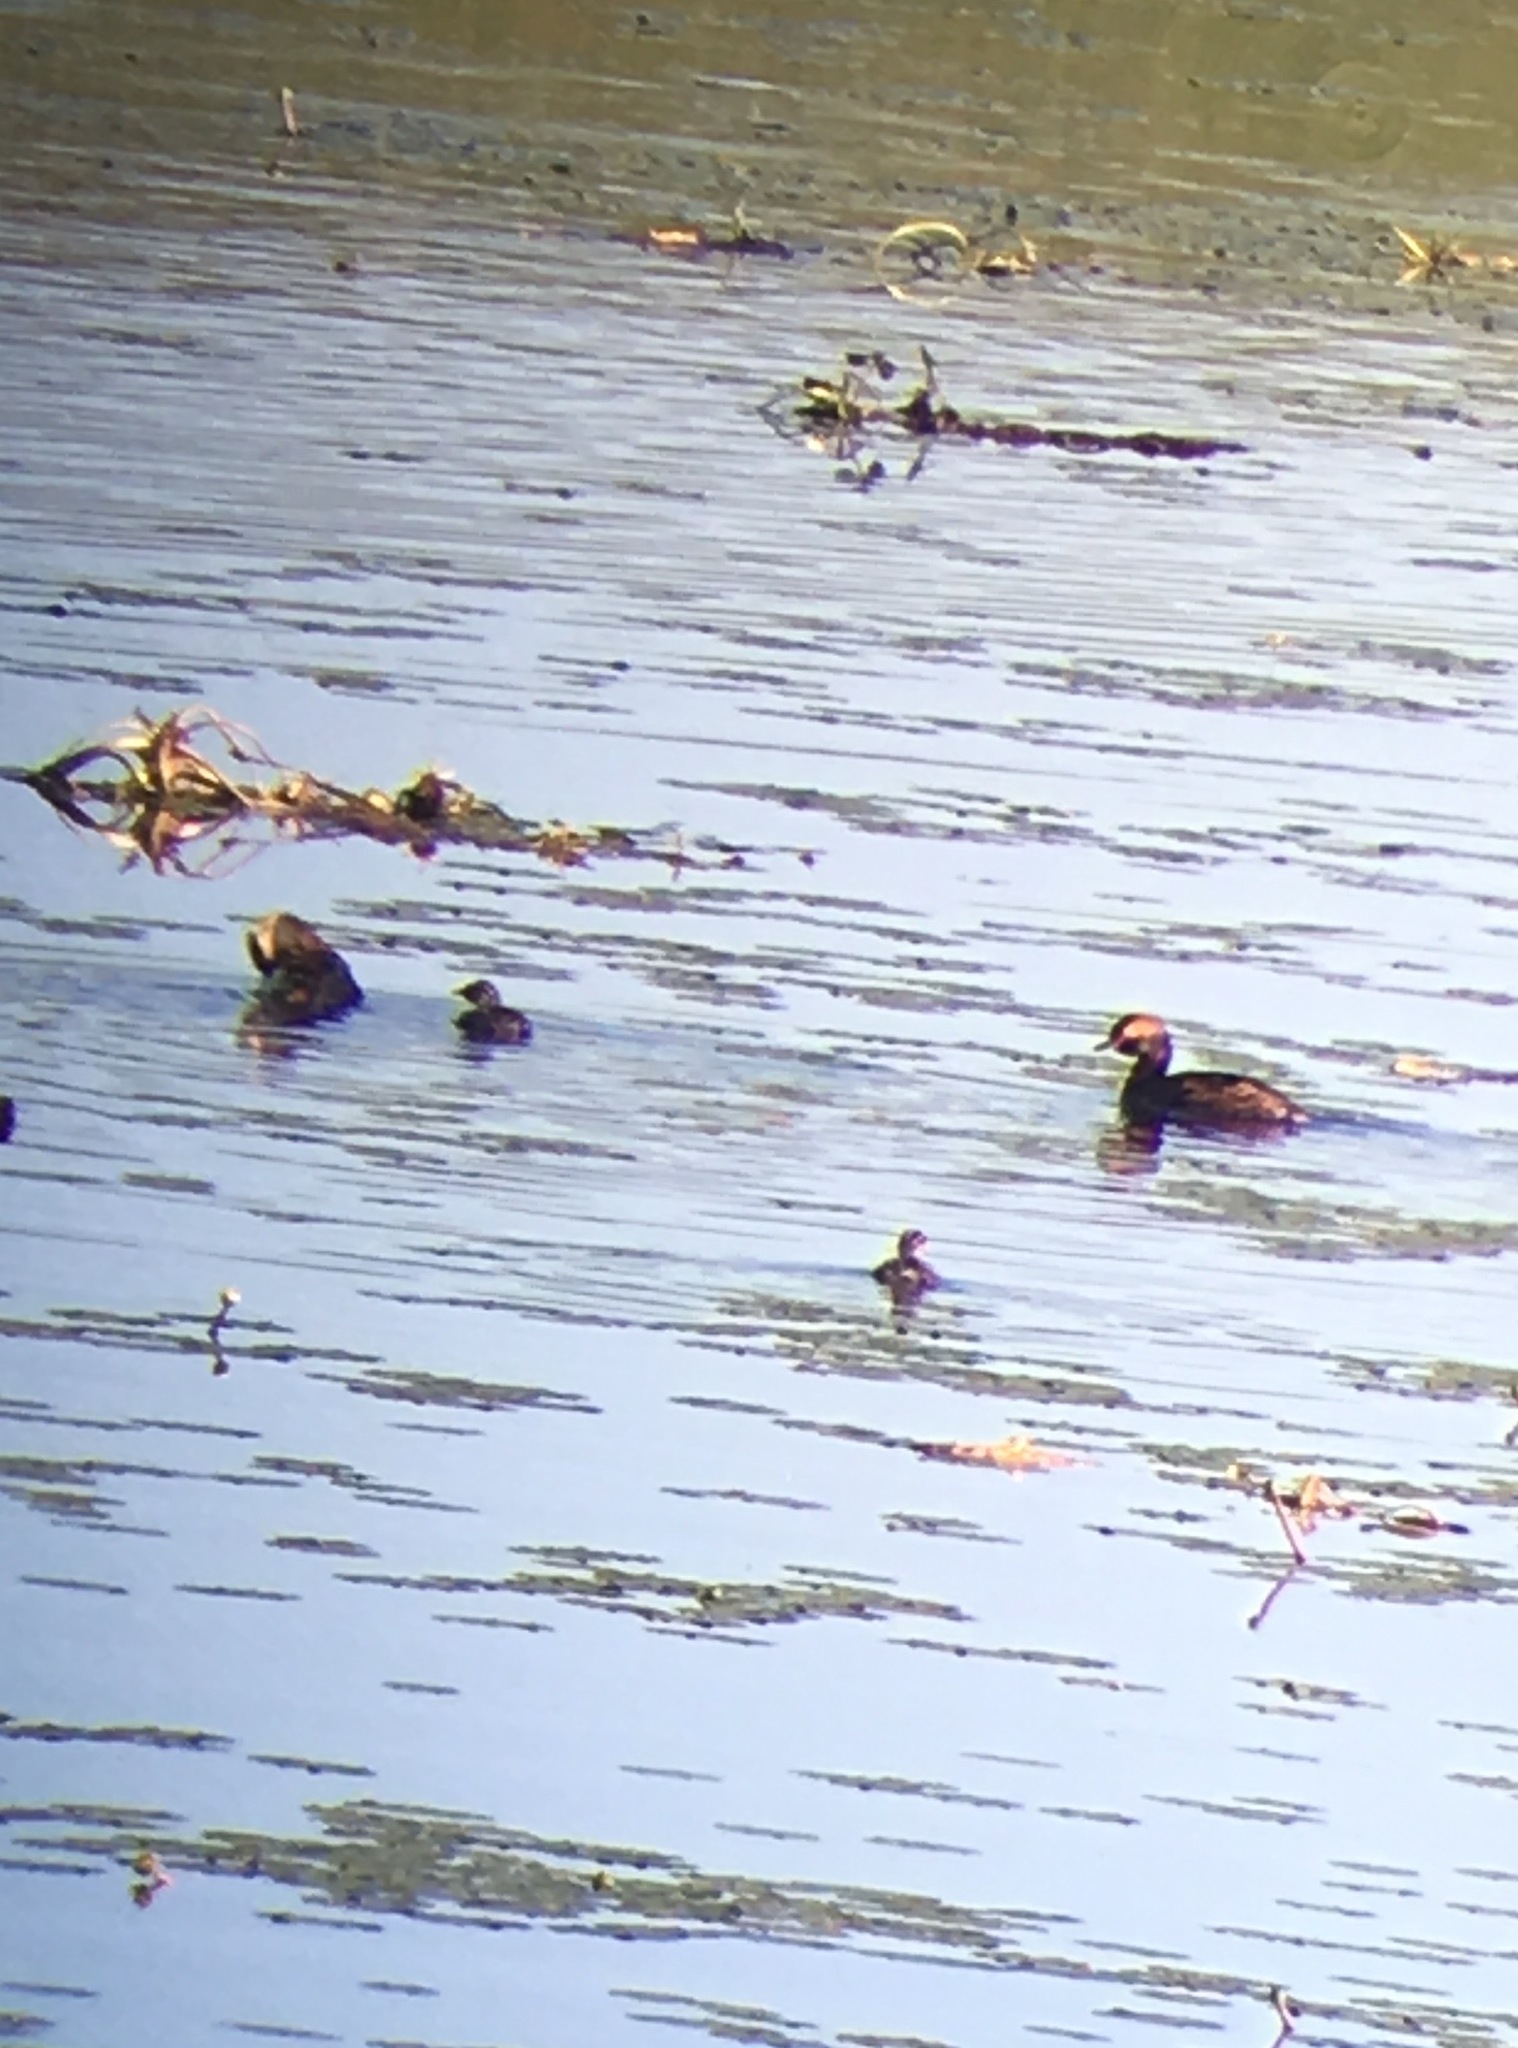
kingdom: Animalia
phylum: Chordata
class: Aves
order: Podicipediformes
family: Podicipedidae
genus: Podiceps
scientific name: Podiceps auritus
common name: Horned grebe
